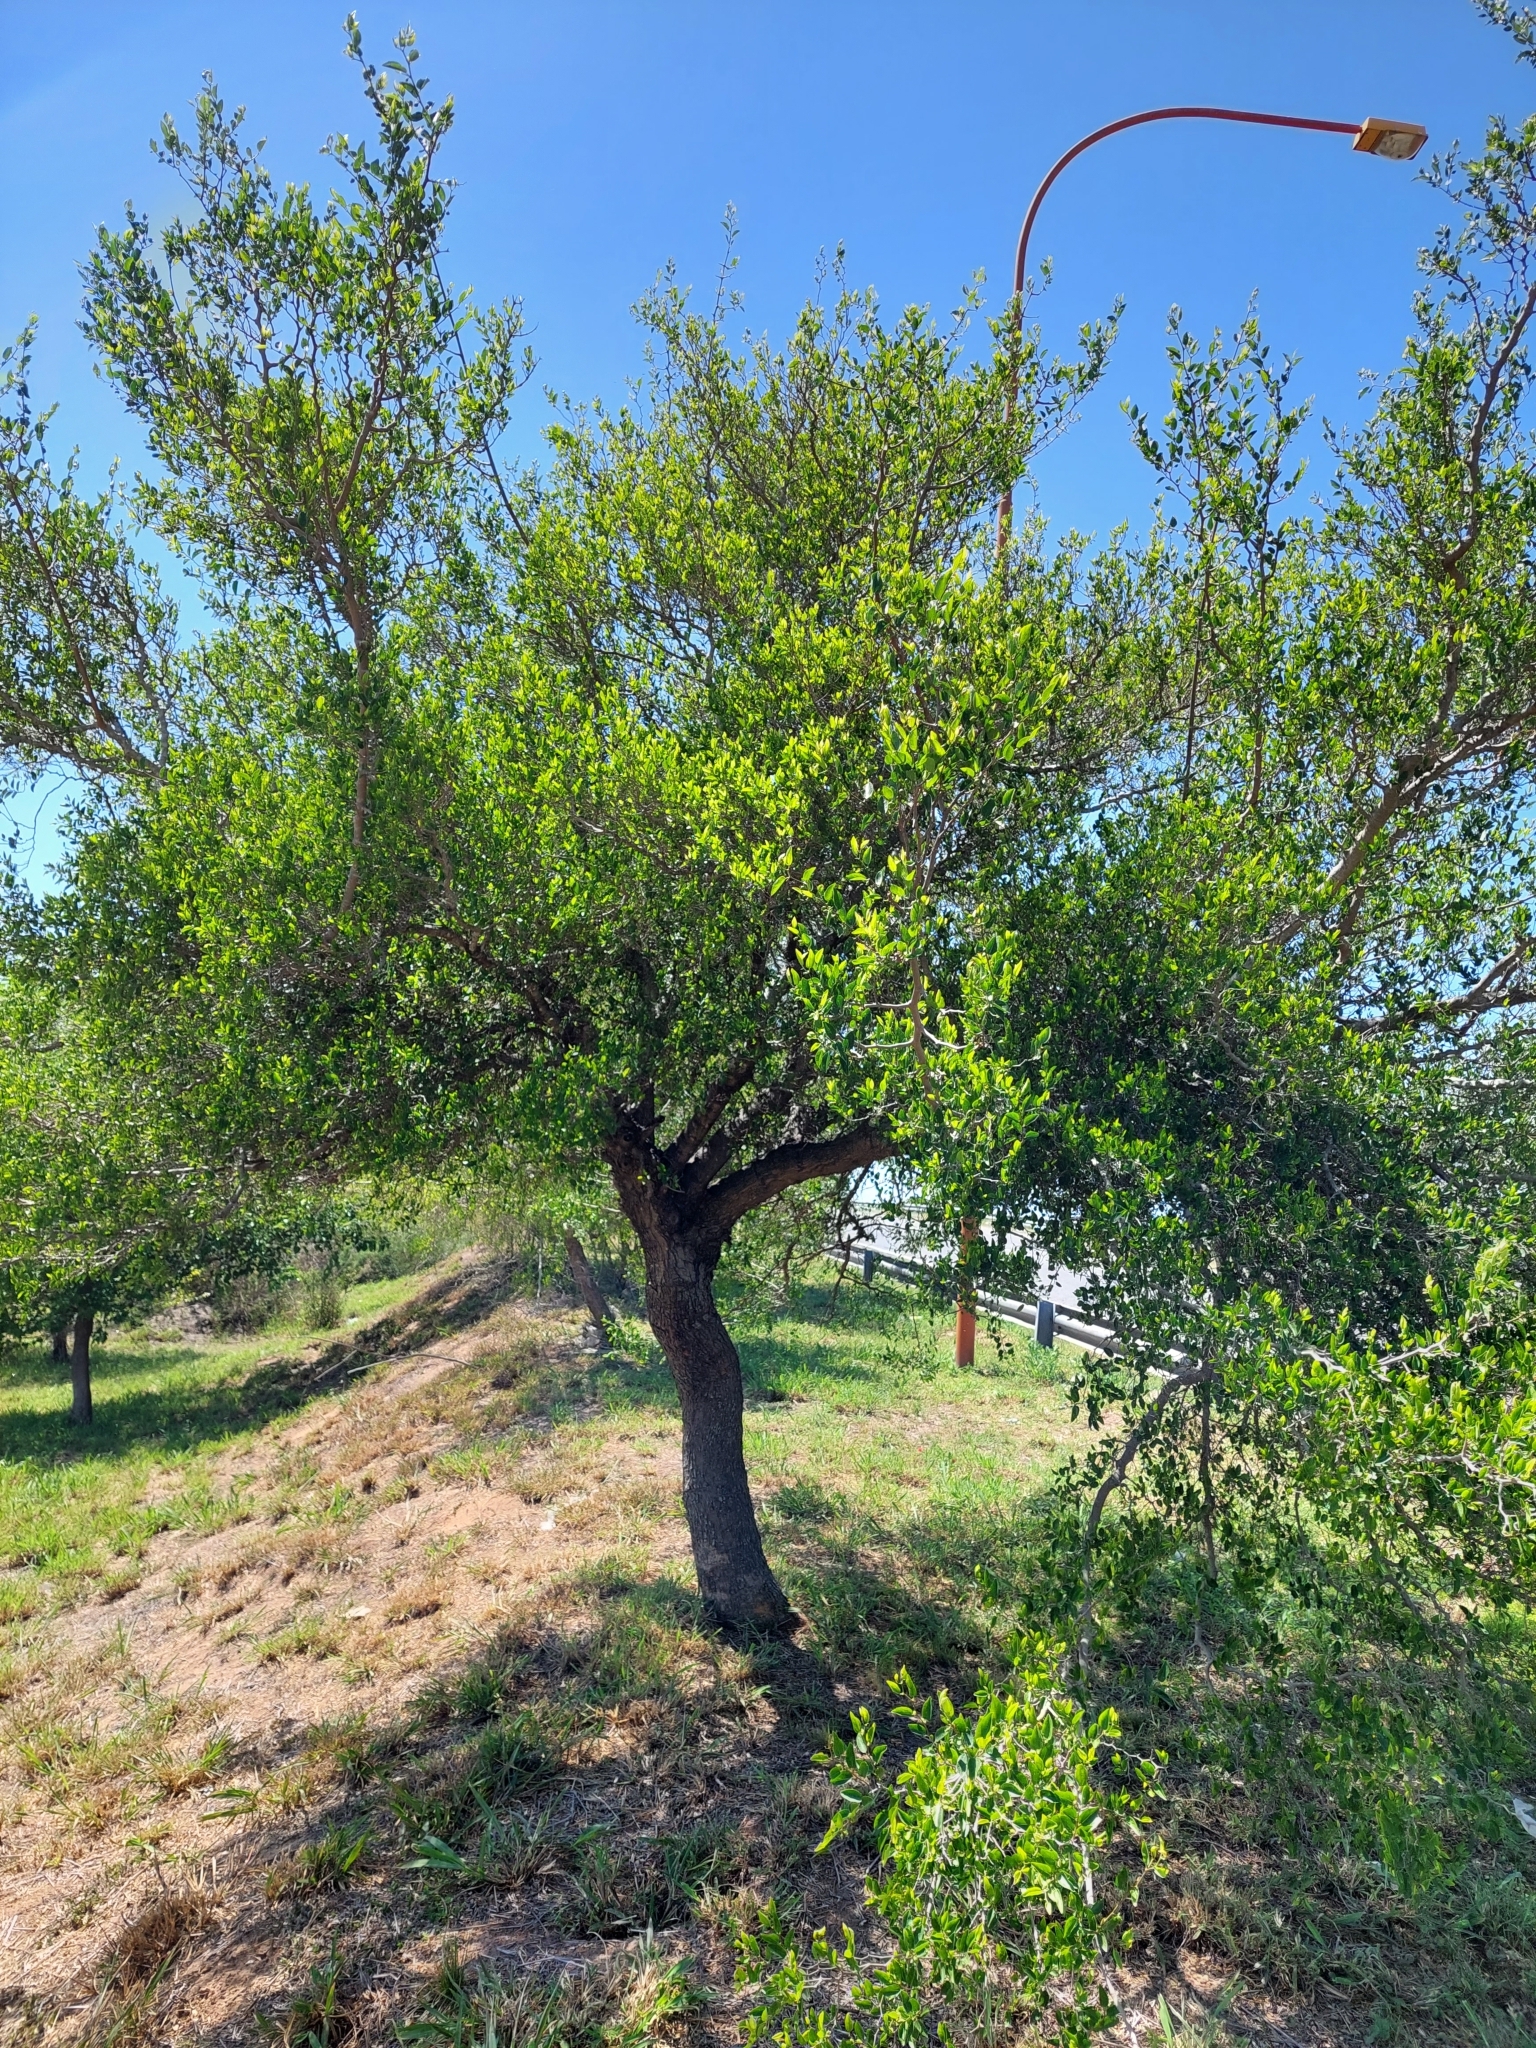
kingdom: Plantae
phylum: Tracheophyta
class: Magnoliopsida
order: Rosales
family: Cannabaceae
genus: Celtis
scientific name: Celtis tala
